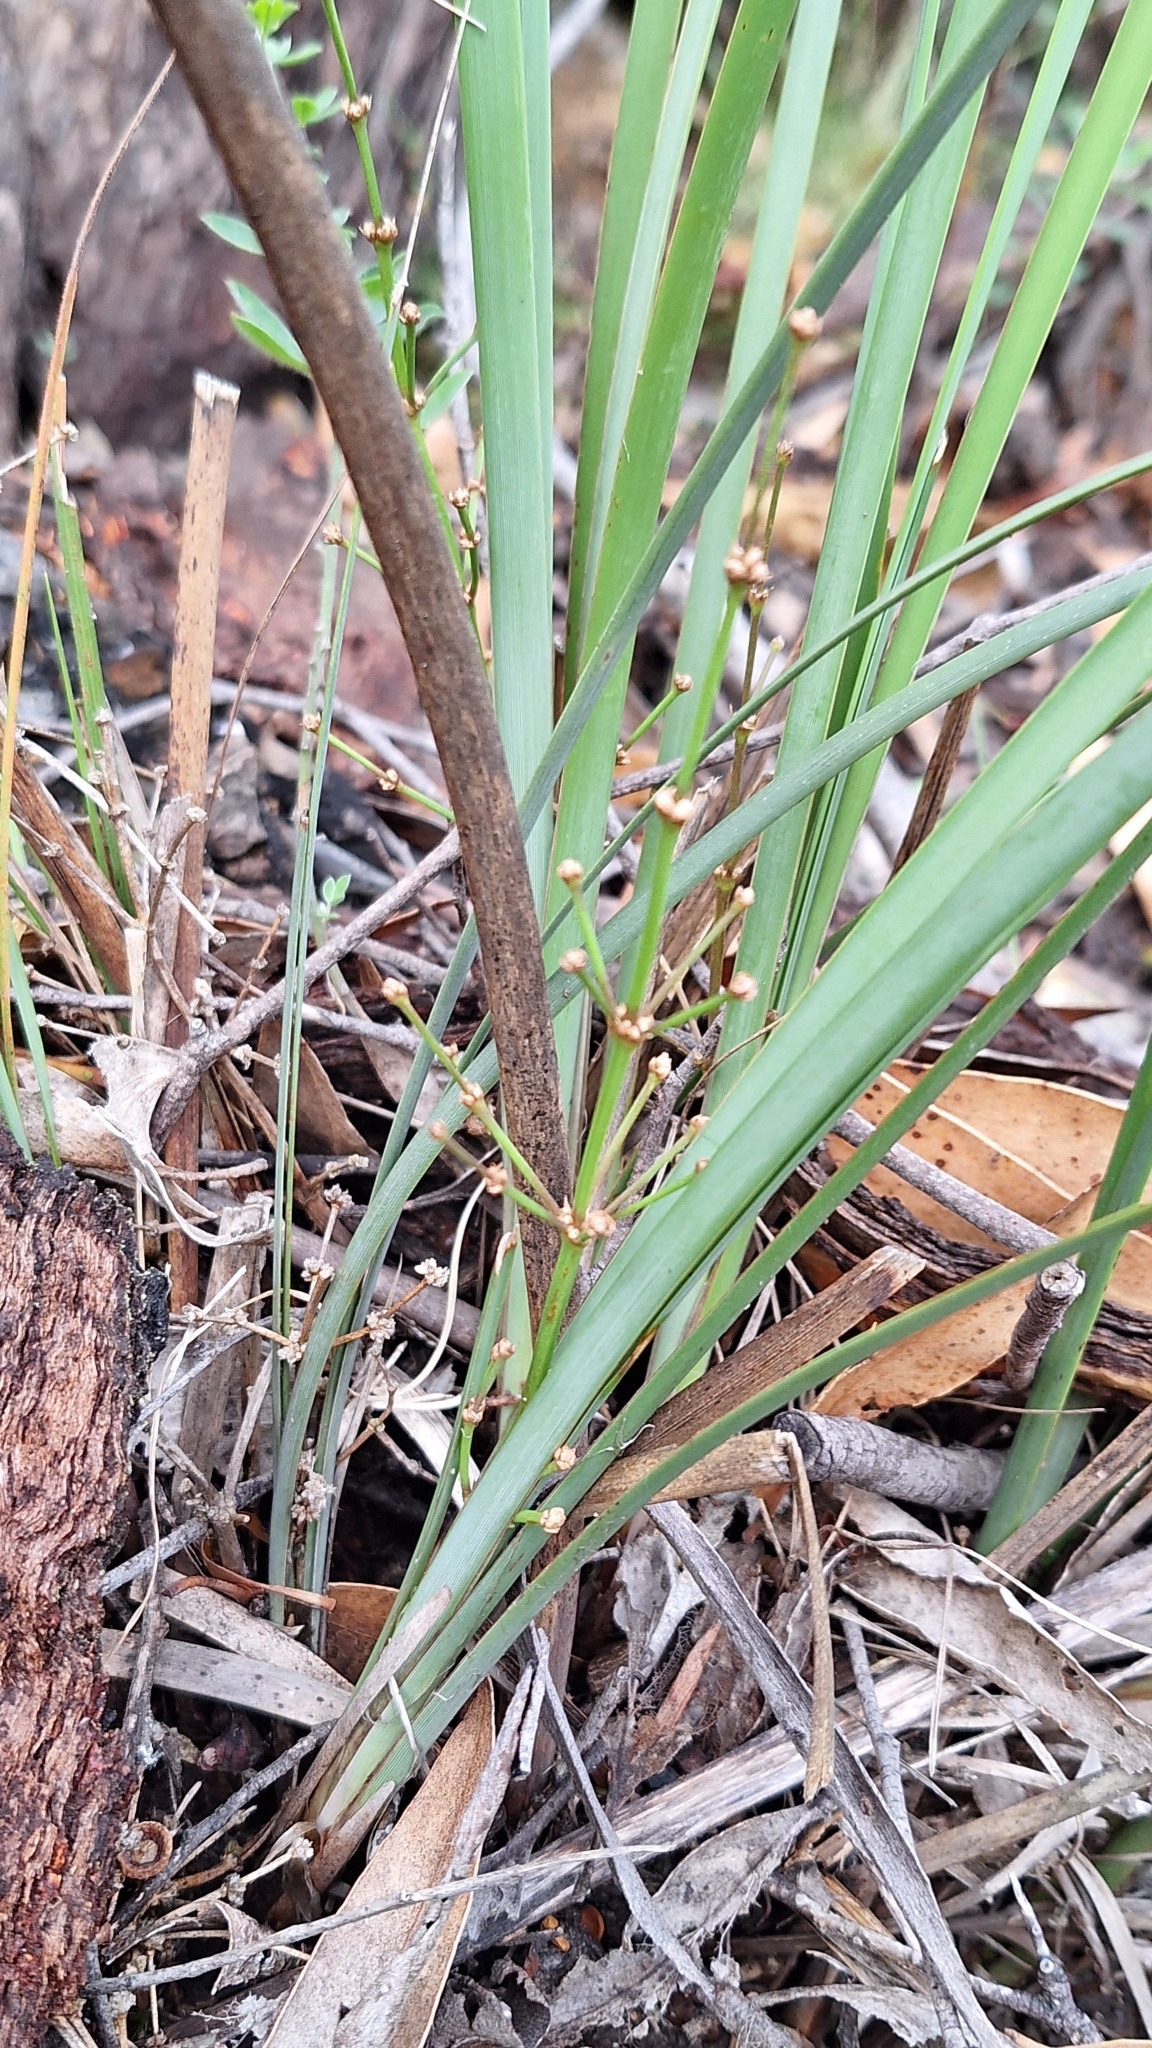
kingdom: Plantae
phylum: Tracheophyta
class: Liliopsida
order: Asparagales
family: Asparagaceae
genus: Lomandra
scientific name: Lomandra multiflora
